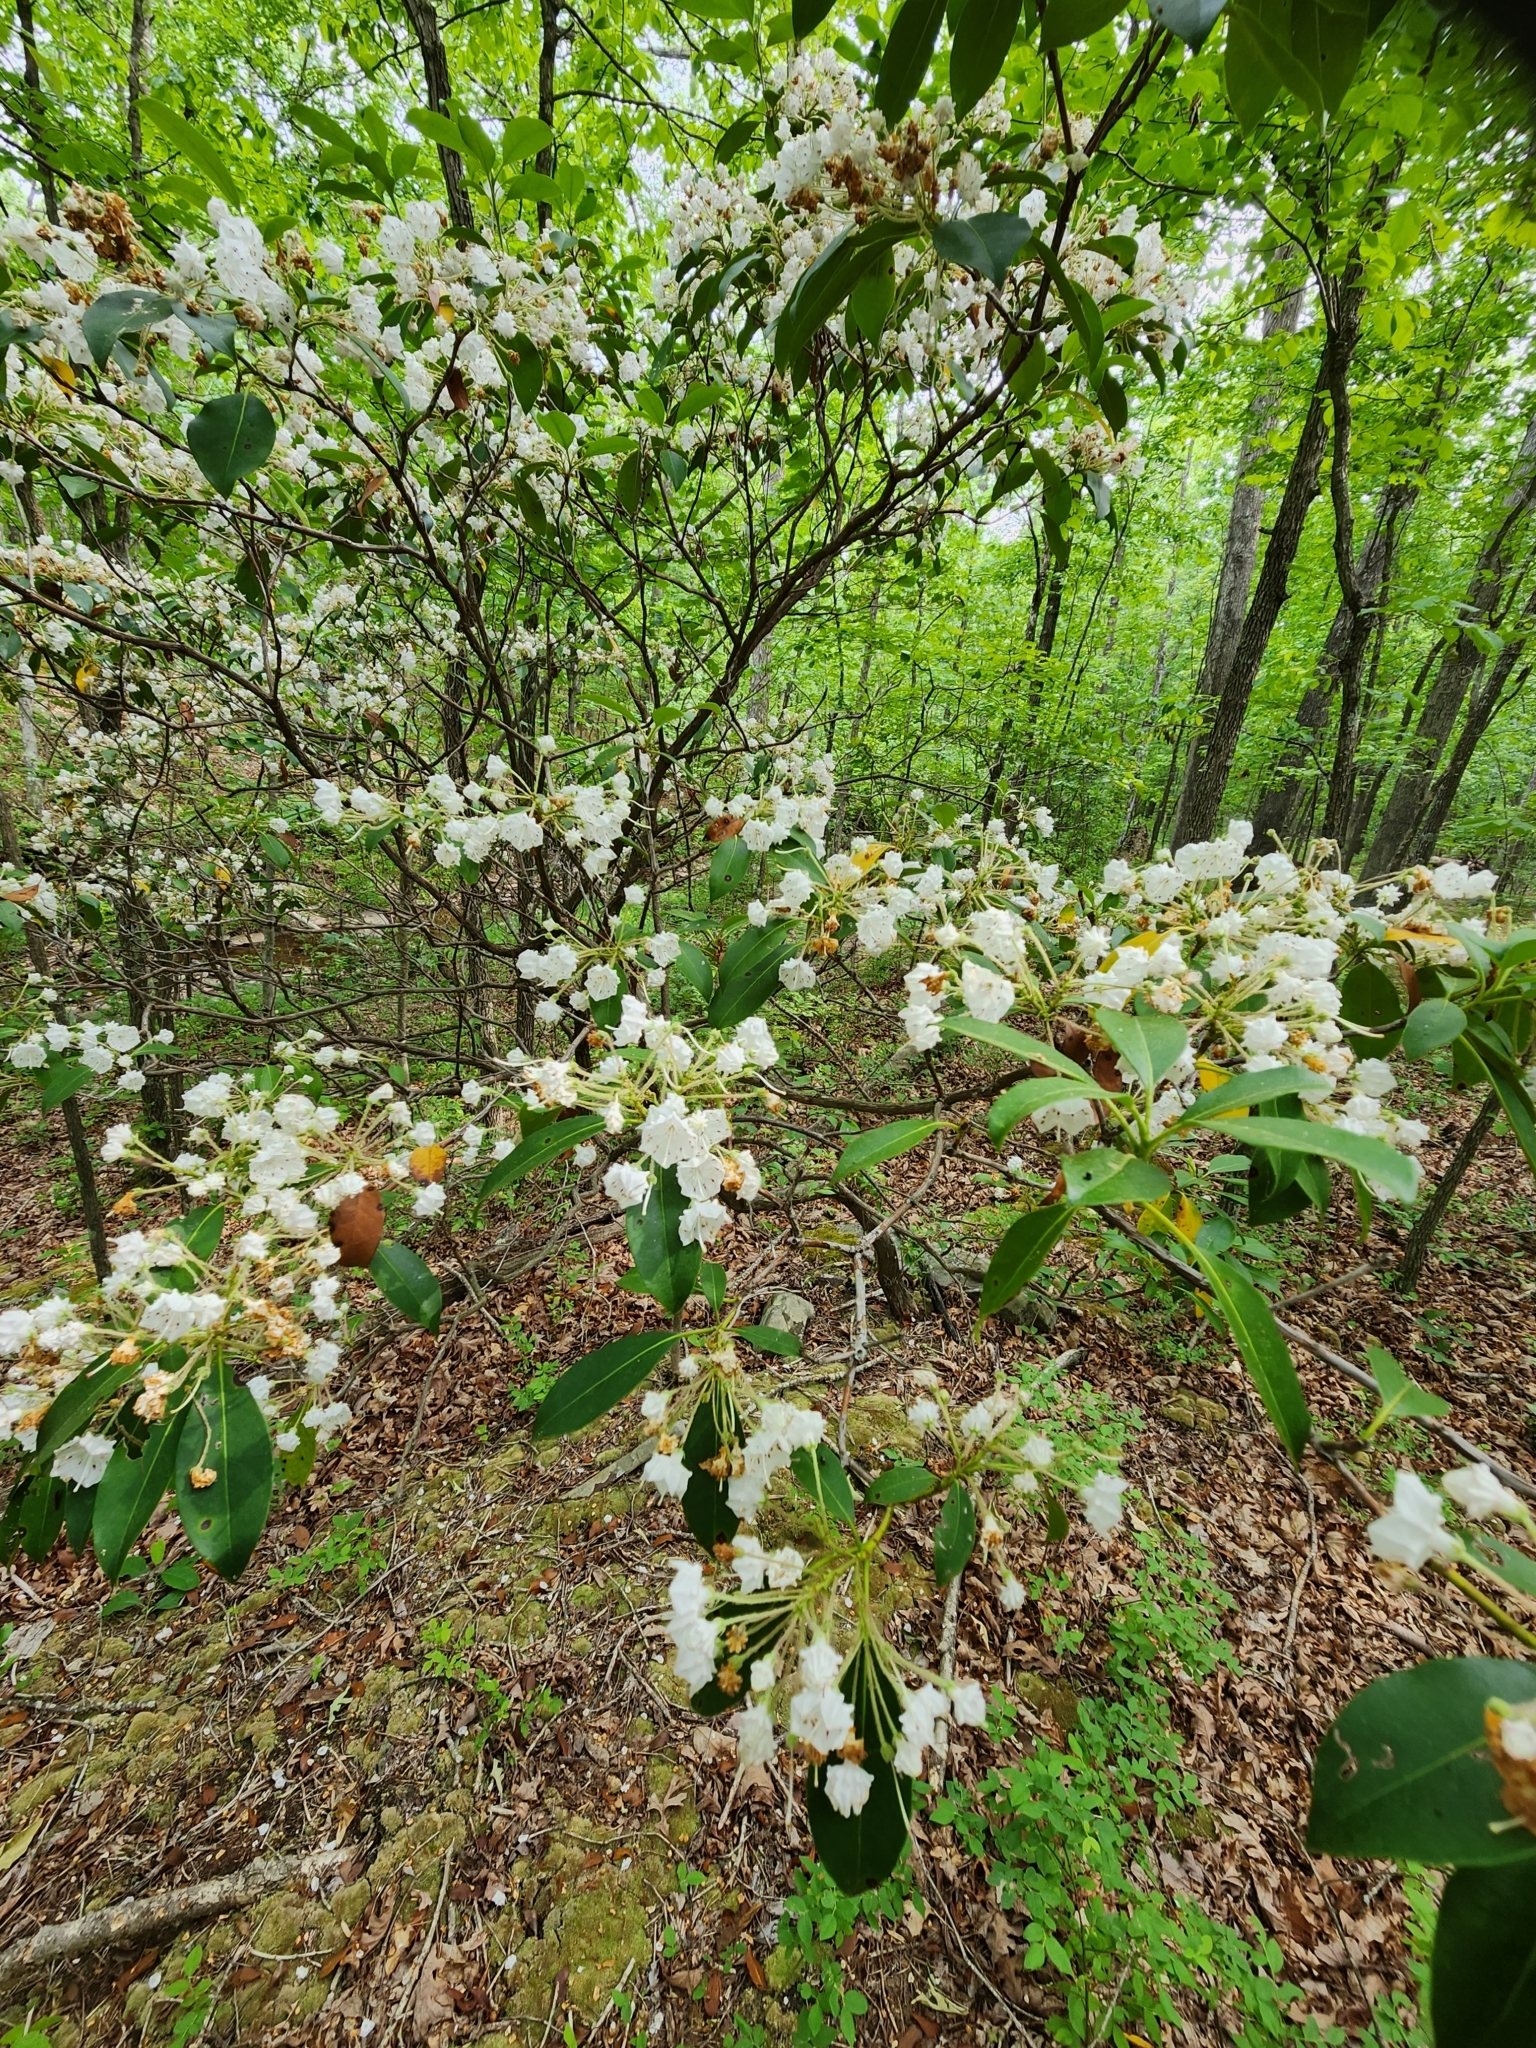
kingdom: Plantae
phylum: Tracheophyta
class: Magnoliopsida
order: Ericales
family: Ericaceae
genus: Kalmia
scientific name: Kalmia latifolia
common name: Mountain-laurel
